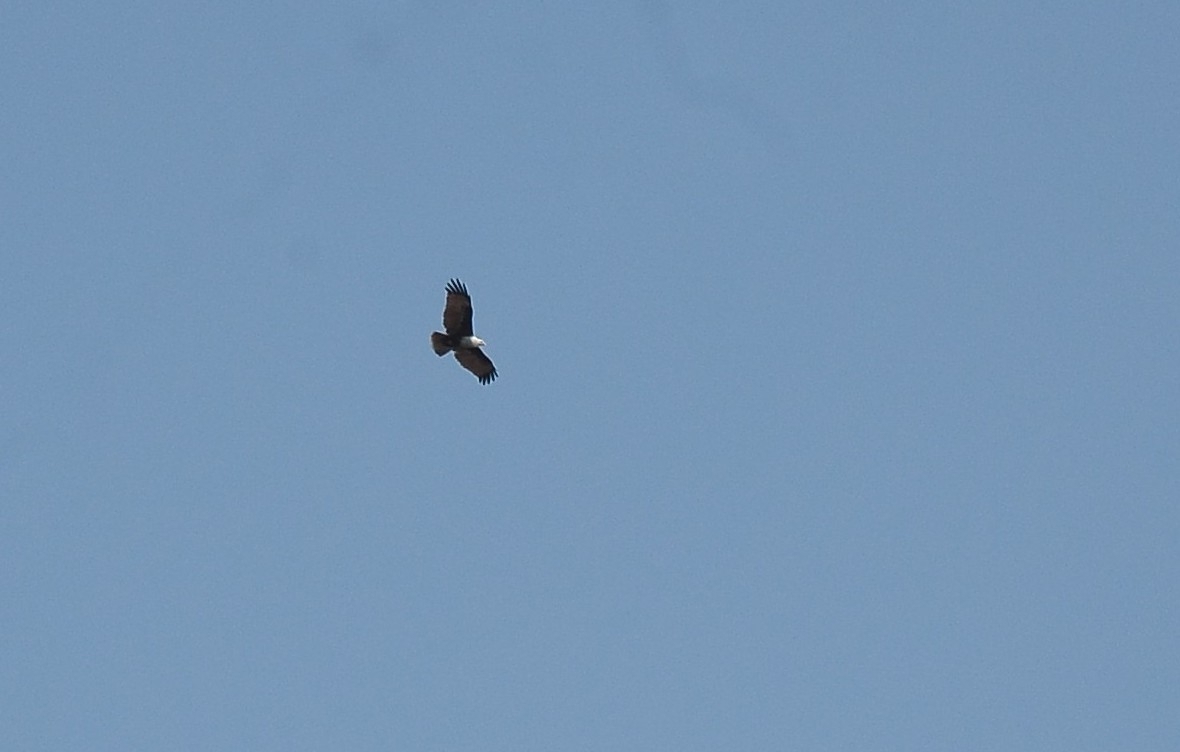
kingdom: Animalia
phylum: Chordata
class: Aves
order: Accipitriformes
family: Accipitridae
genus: Haliastur
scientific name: Haliastur indus
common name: Brahminy kite
